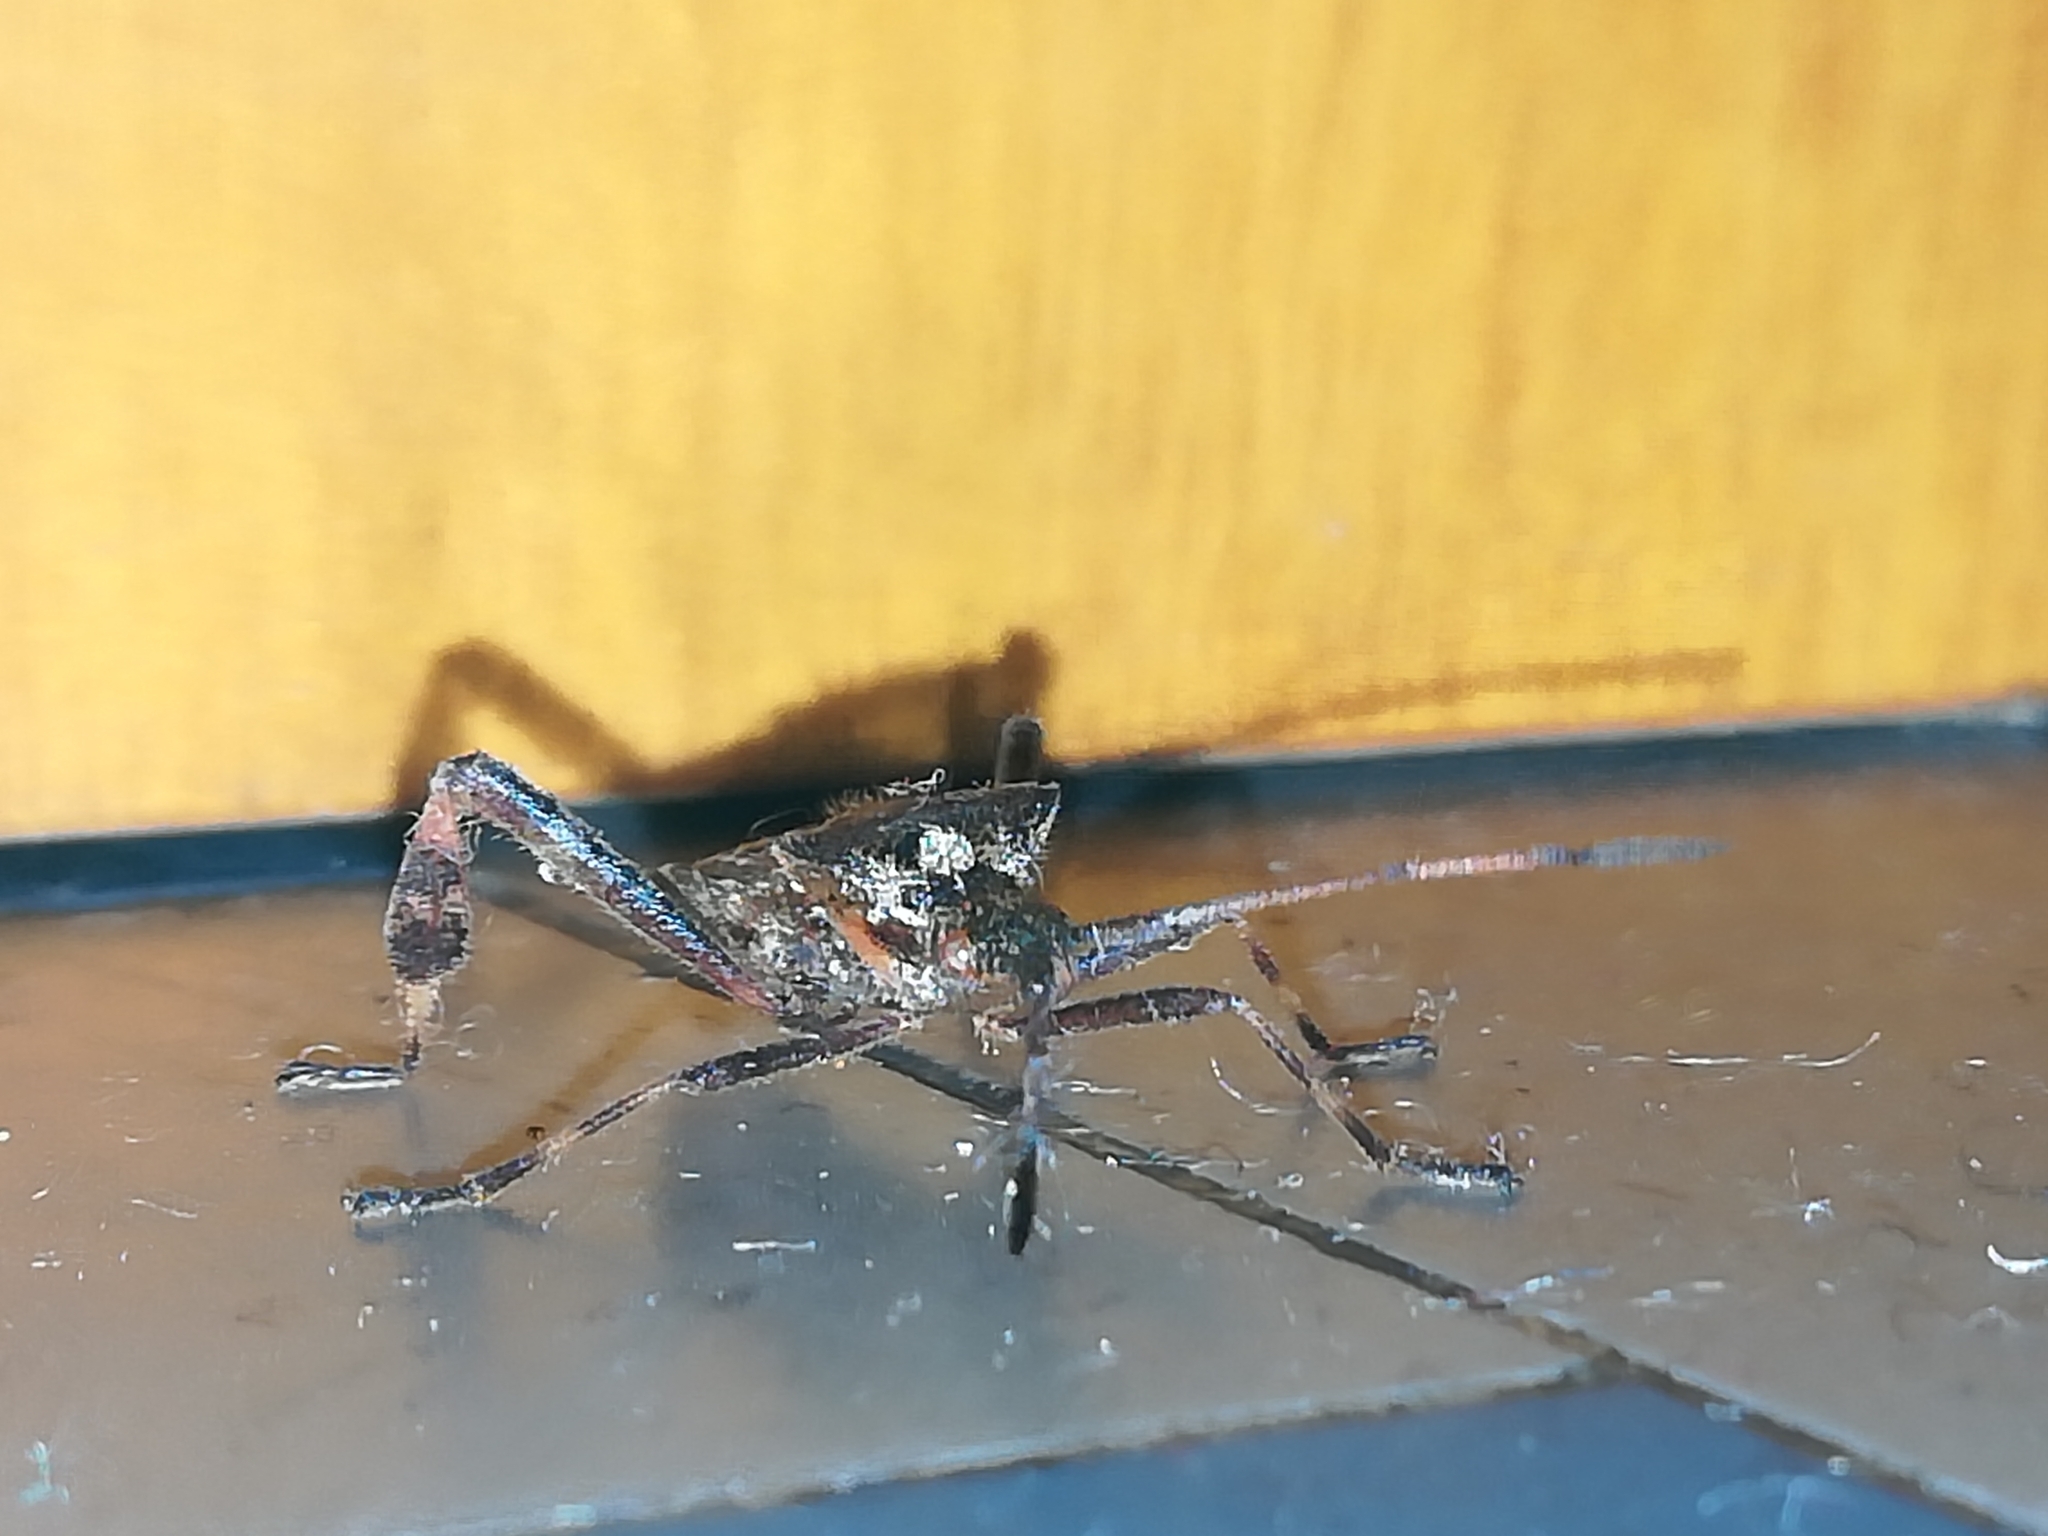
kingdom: Animalia
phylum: Arthropoda
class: Insecta
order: Hemiptera
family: Coreidae
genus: Leptoglossus
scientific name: Leptoglossus occidentalis
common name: Western conifer-seed bug
